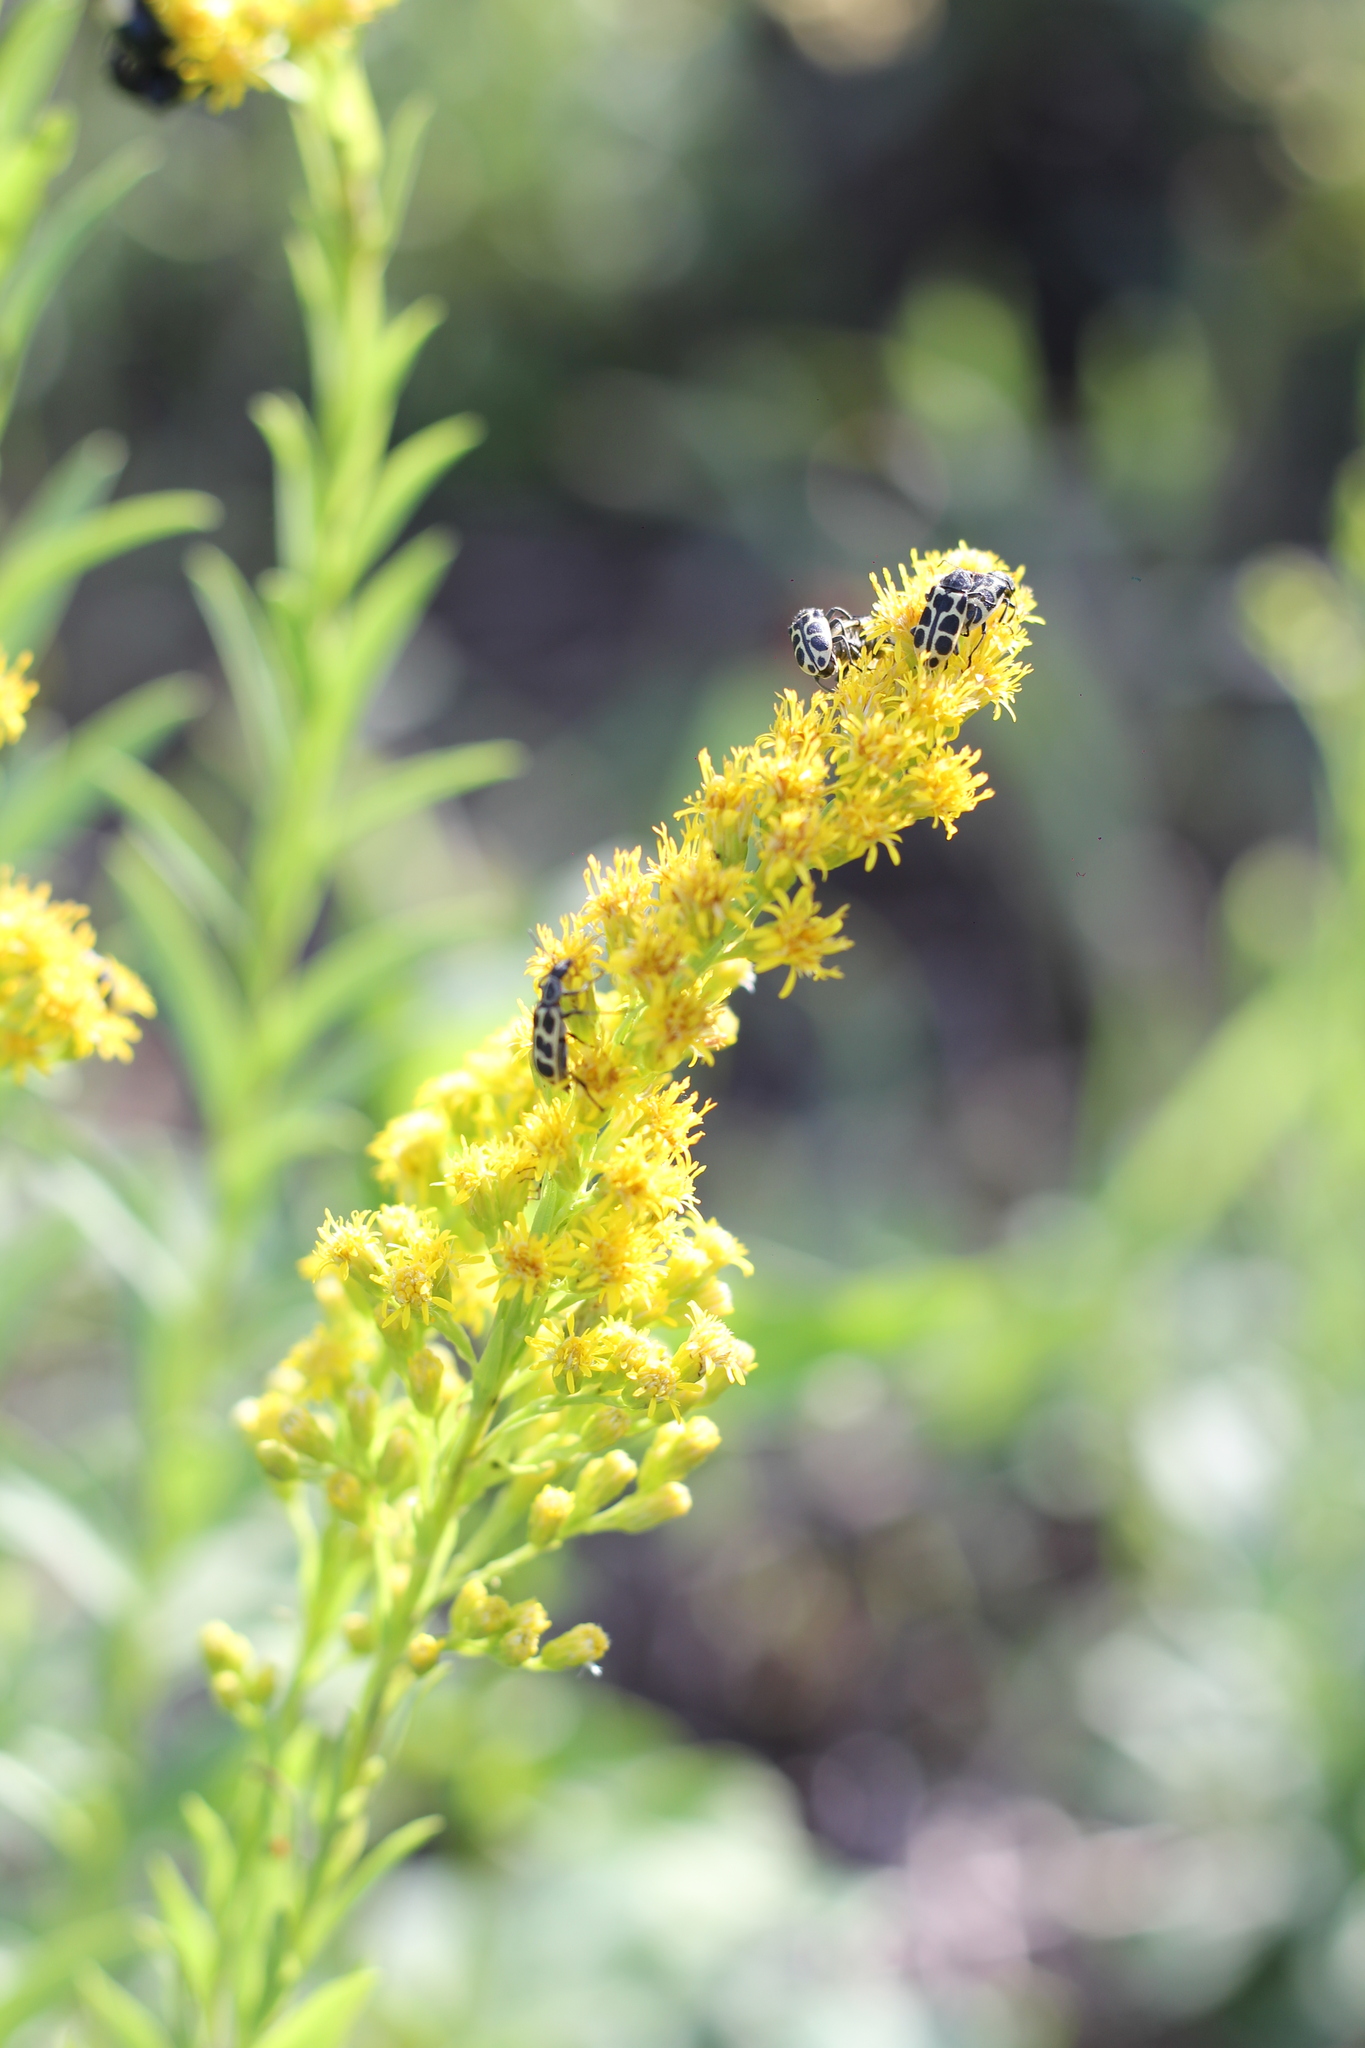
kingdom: Plantae
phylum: Tracheophyta
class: Magnoliopsida
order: Asterales
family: Asteraceae
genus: Solidago
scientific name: Solidago chilensis
